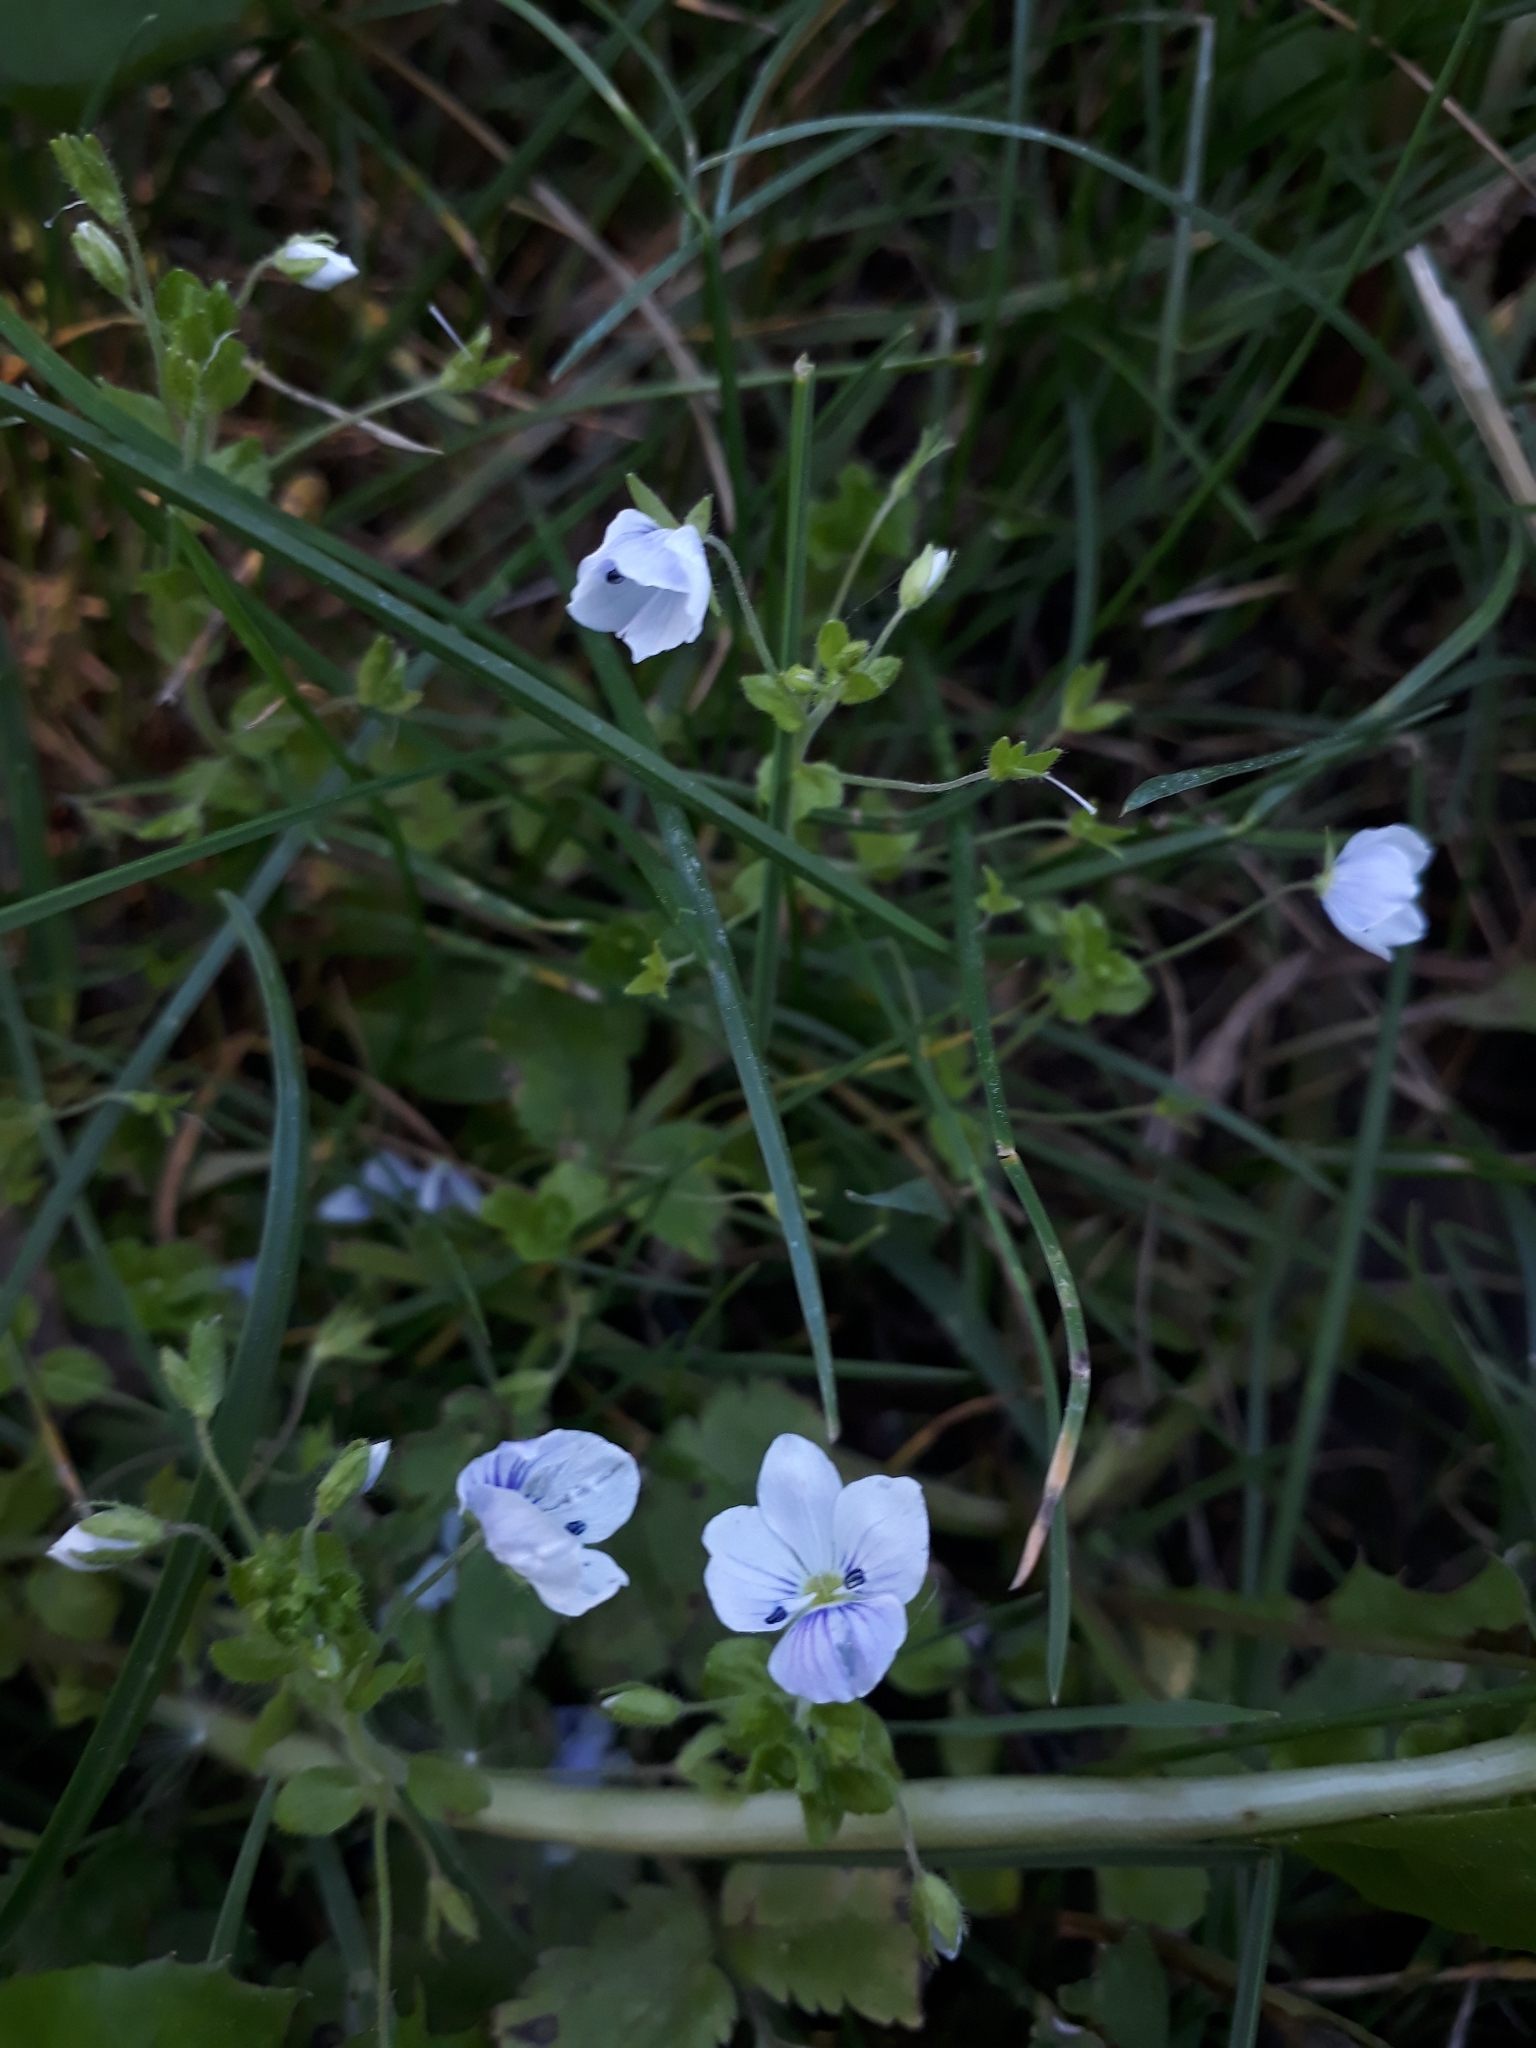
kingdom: Plantae
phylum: Tracheophyta
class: Magnoliopsida
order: Lamiales
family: Plantaginaceae
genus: Veronica
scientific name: Veronica filiformis
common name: Slender speedwell
